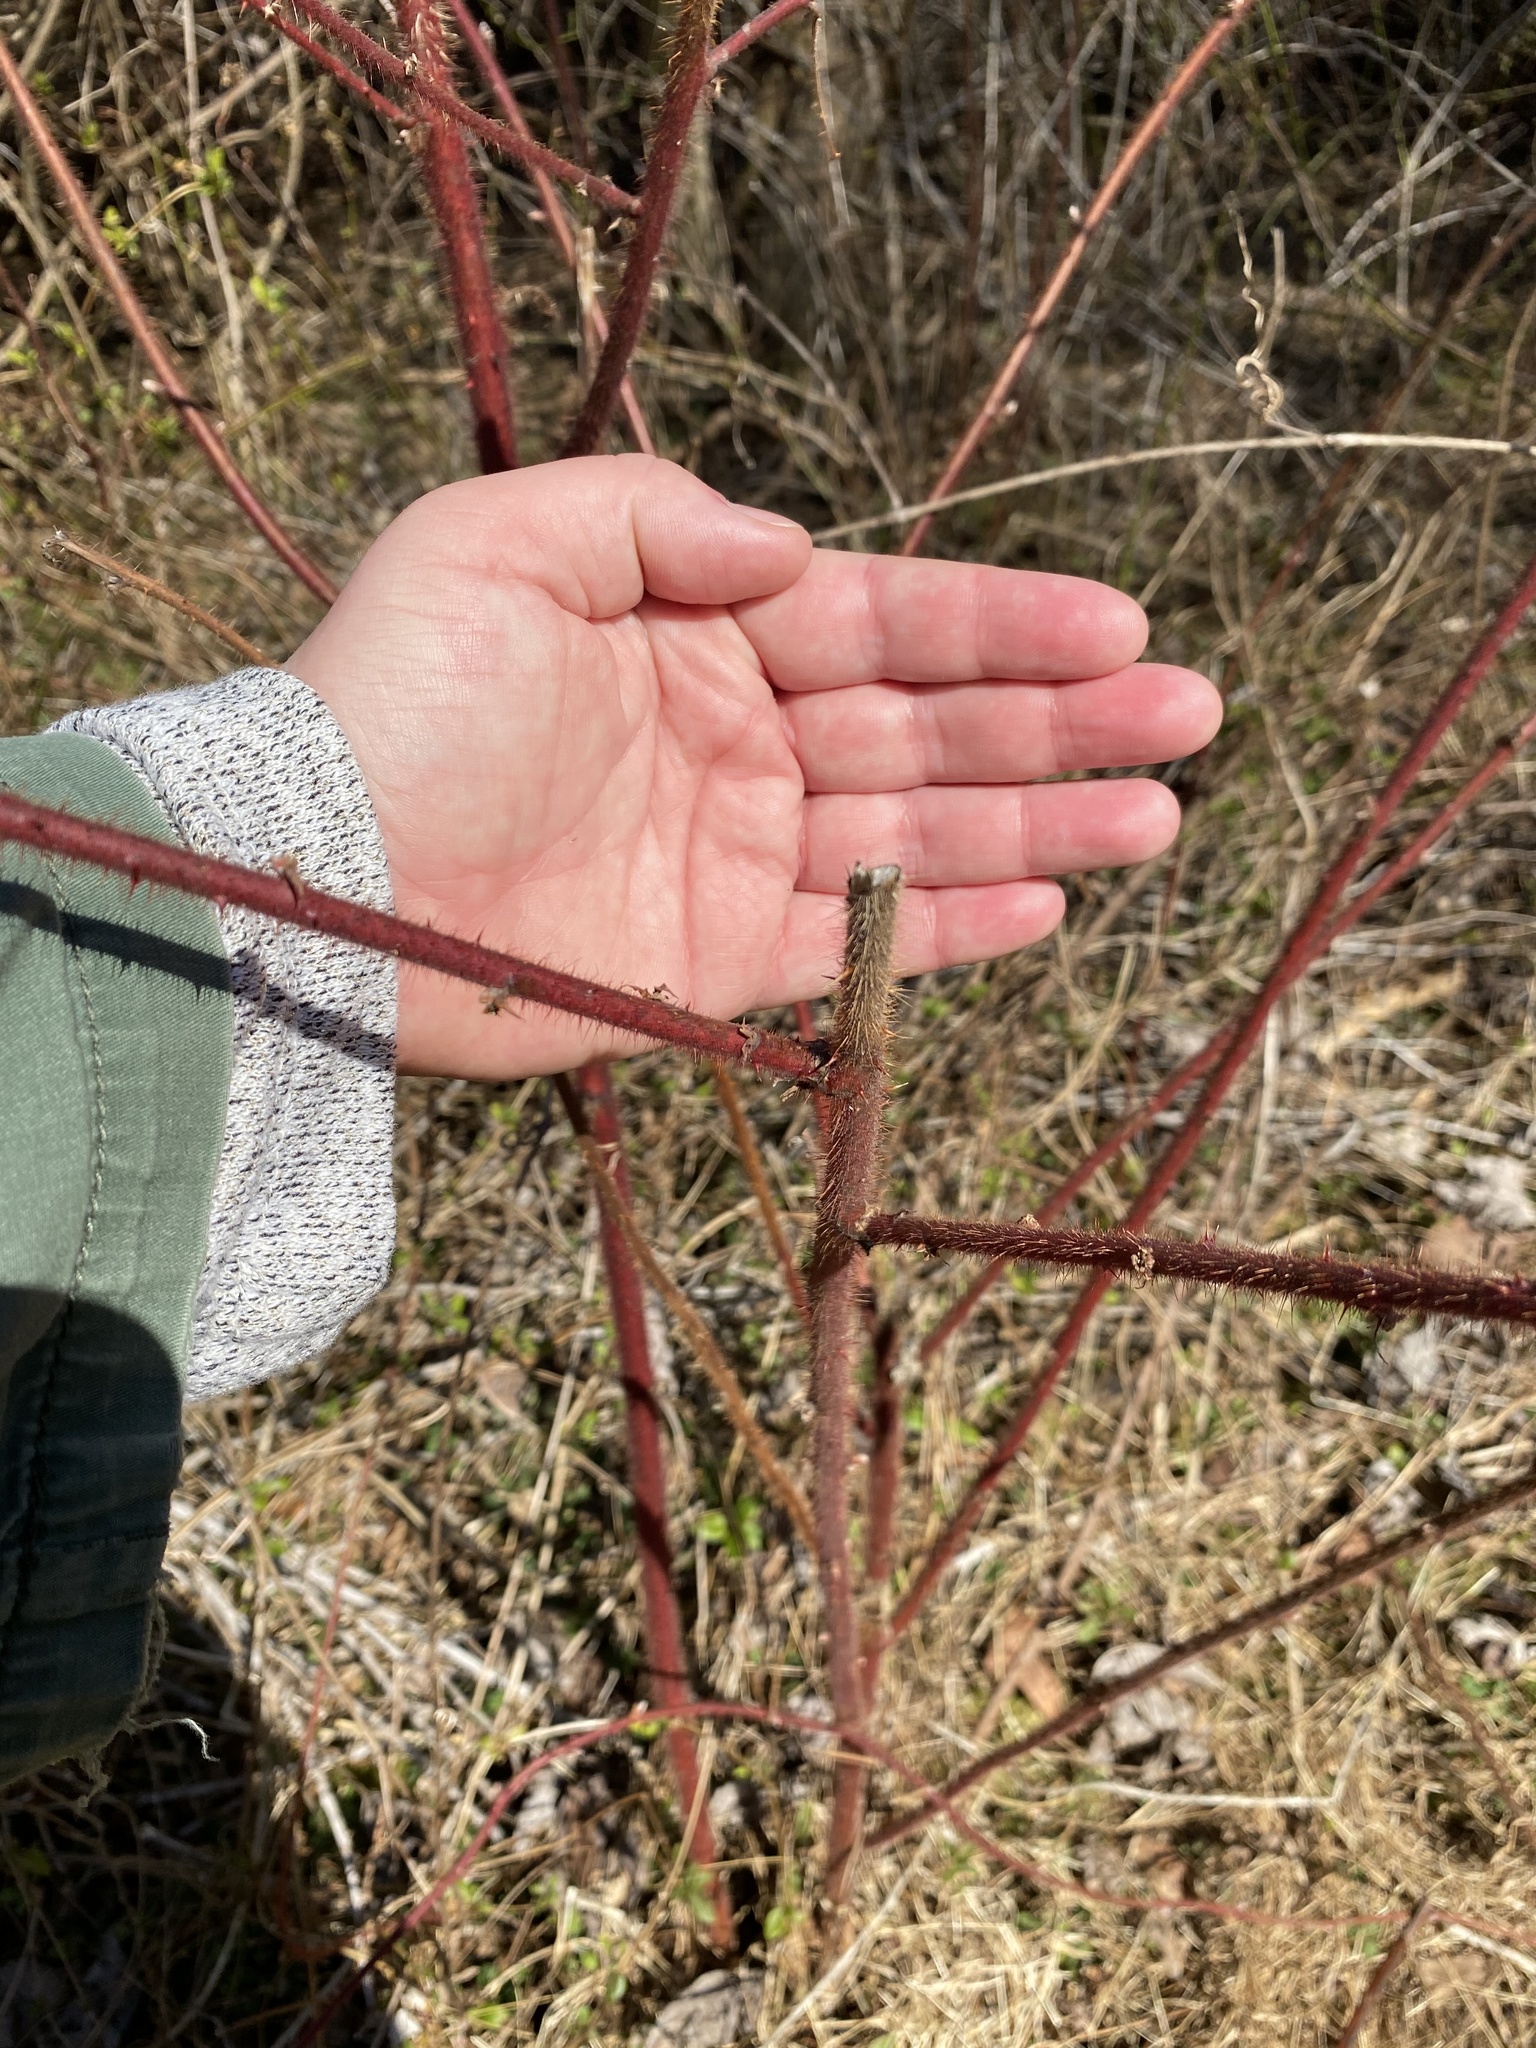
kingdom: Plantae
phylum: Tracheophyta
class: Magnoliopsida
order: Rosales
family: Rosaceae
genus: Rubus
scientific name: Rubus phoenicolasius
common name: Japanese wineberry
